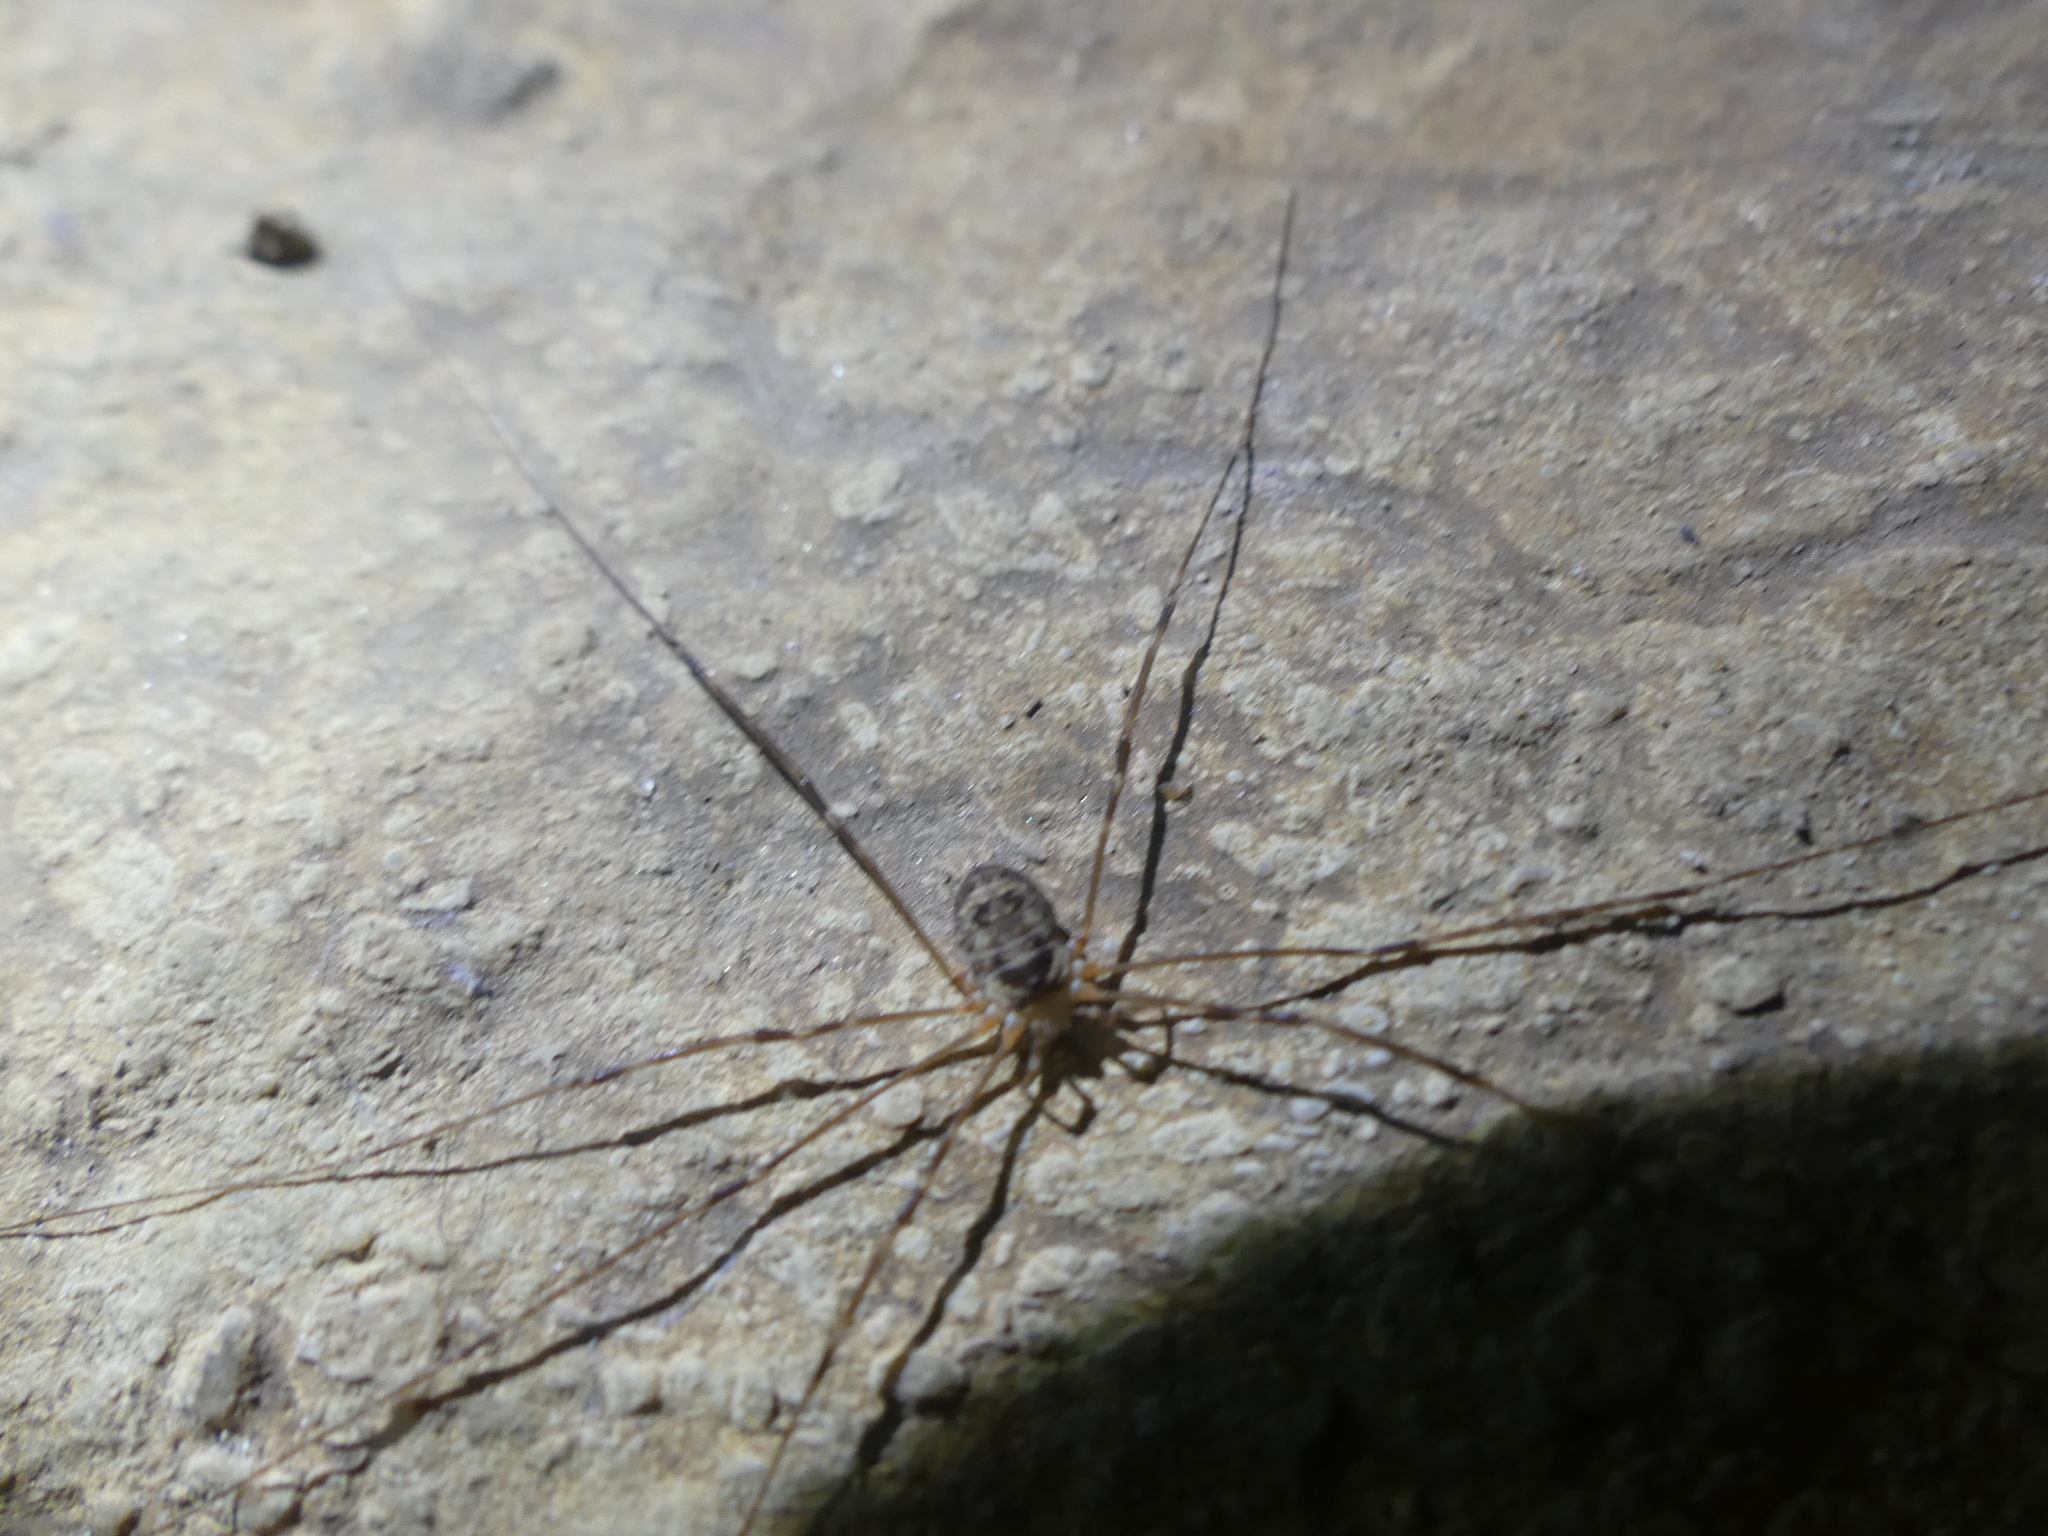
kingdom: Animalia
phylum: Arthropoda
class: Arachnida
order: Opiliones
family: Phalangiidae
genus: Amilenus
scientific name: Amilenus aurantiacus
